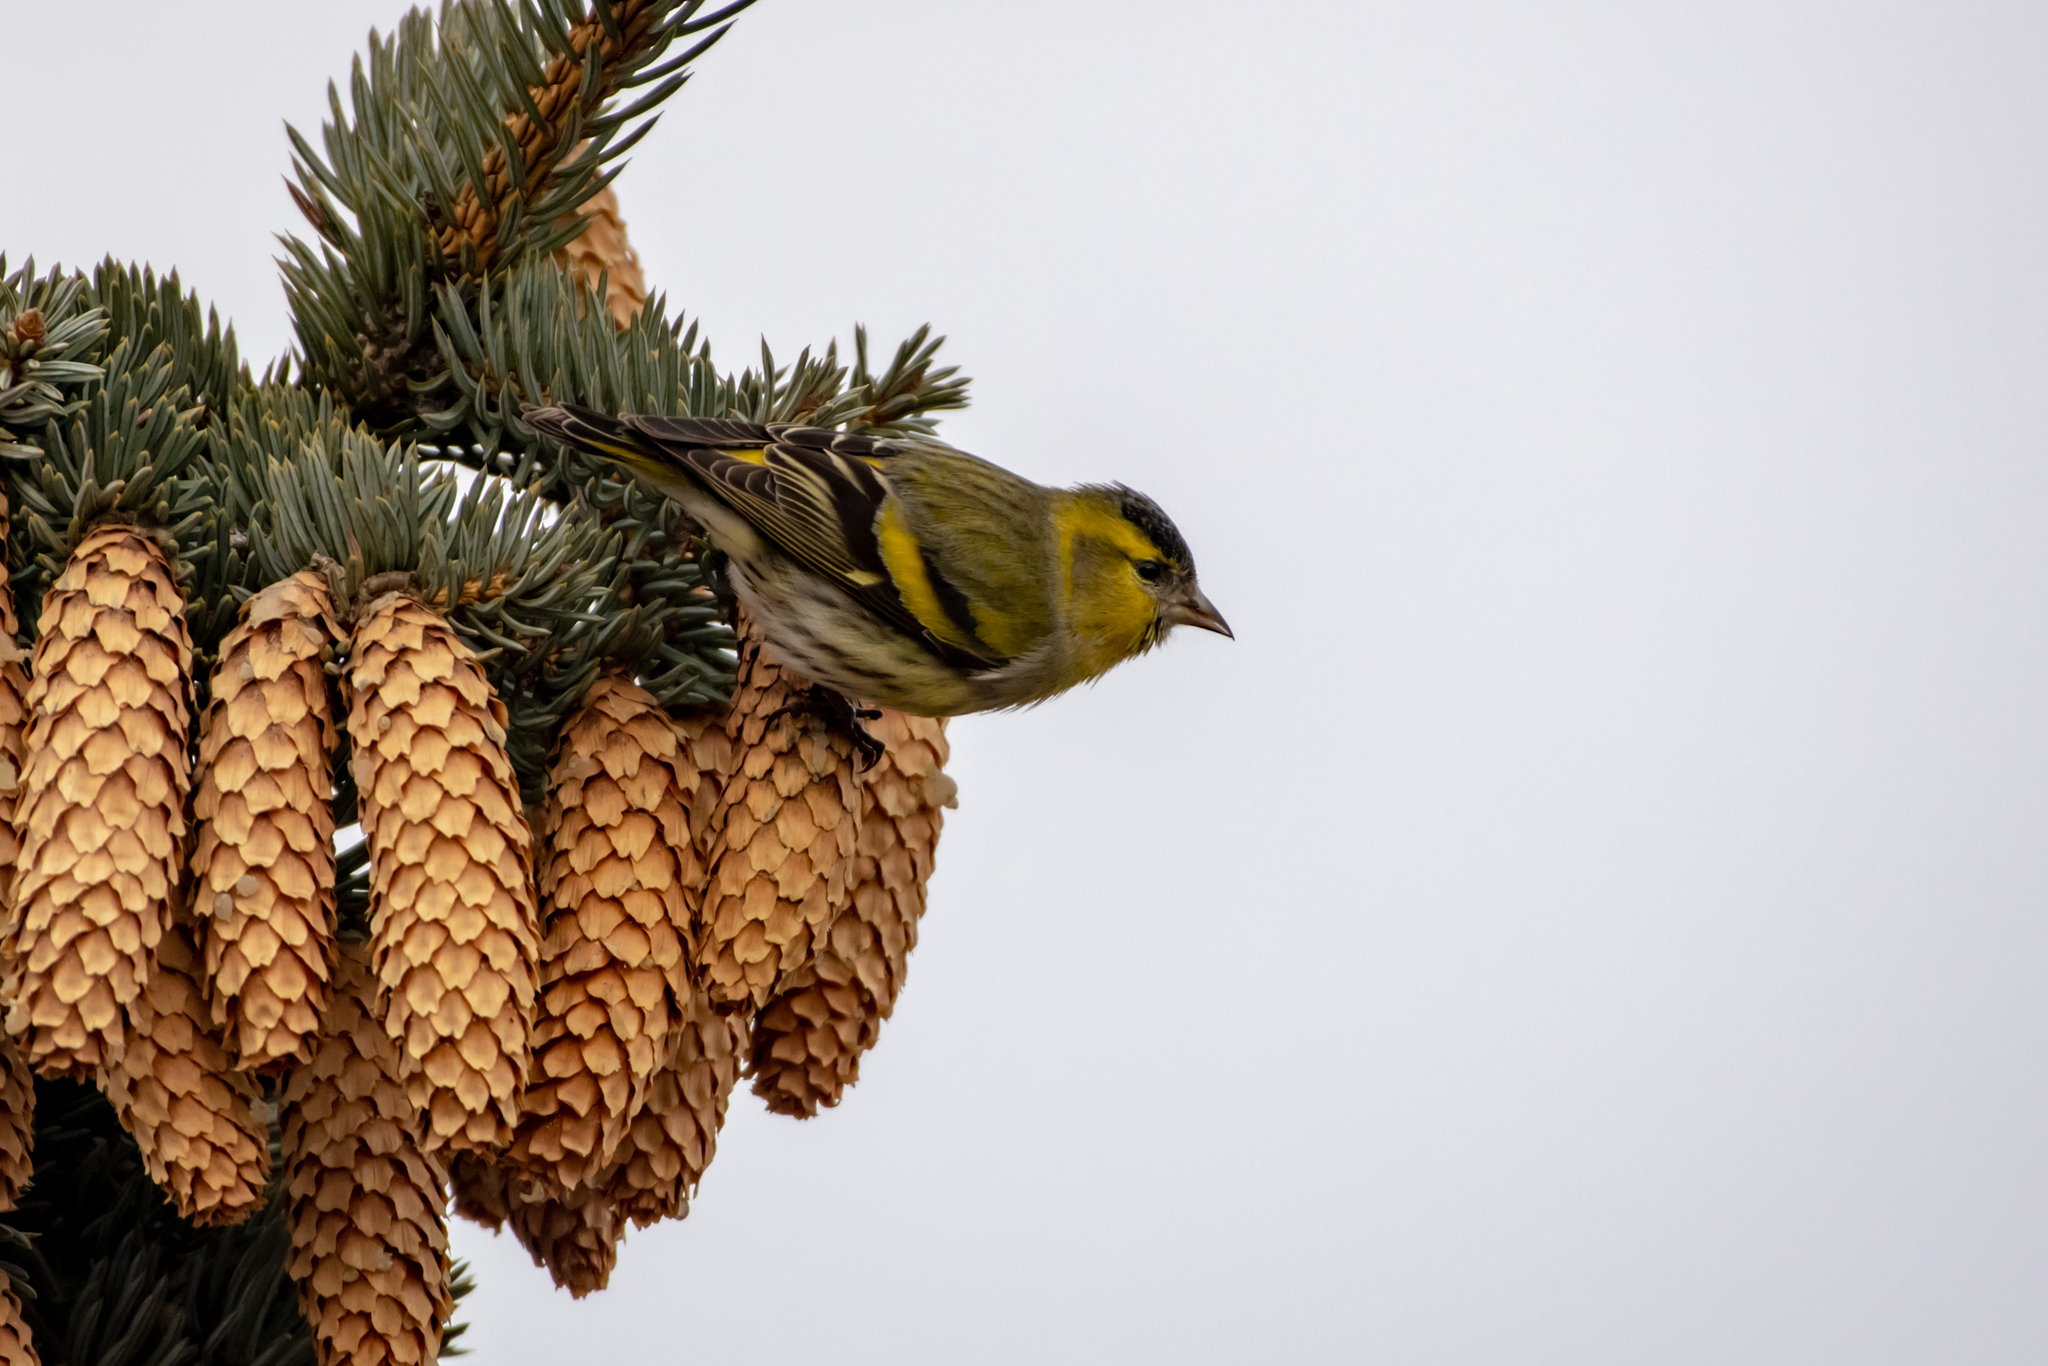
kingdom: Animalia
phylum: Chordata
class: Aves
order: Passeriformes
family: Fringillidae
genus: Spinus
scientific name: Spinus spinus
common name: Eurasian siskin
